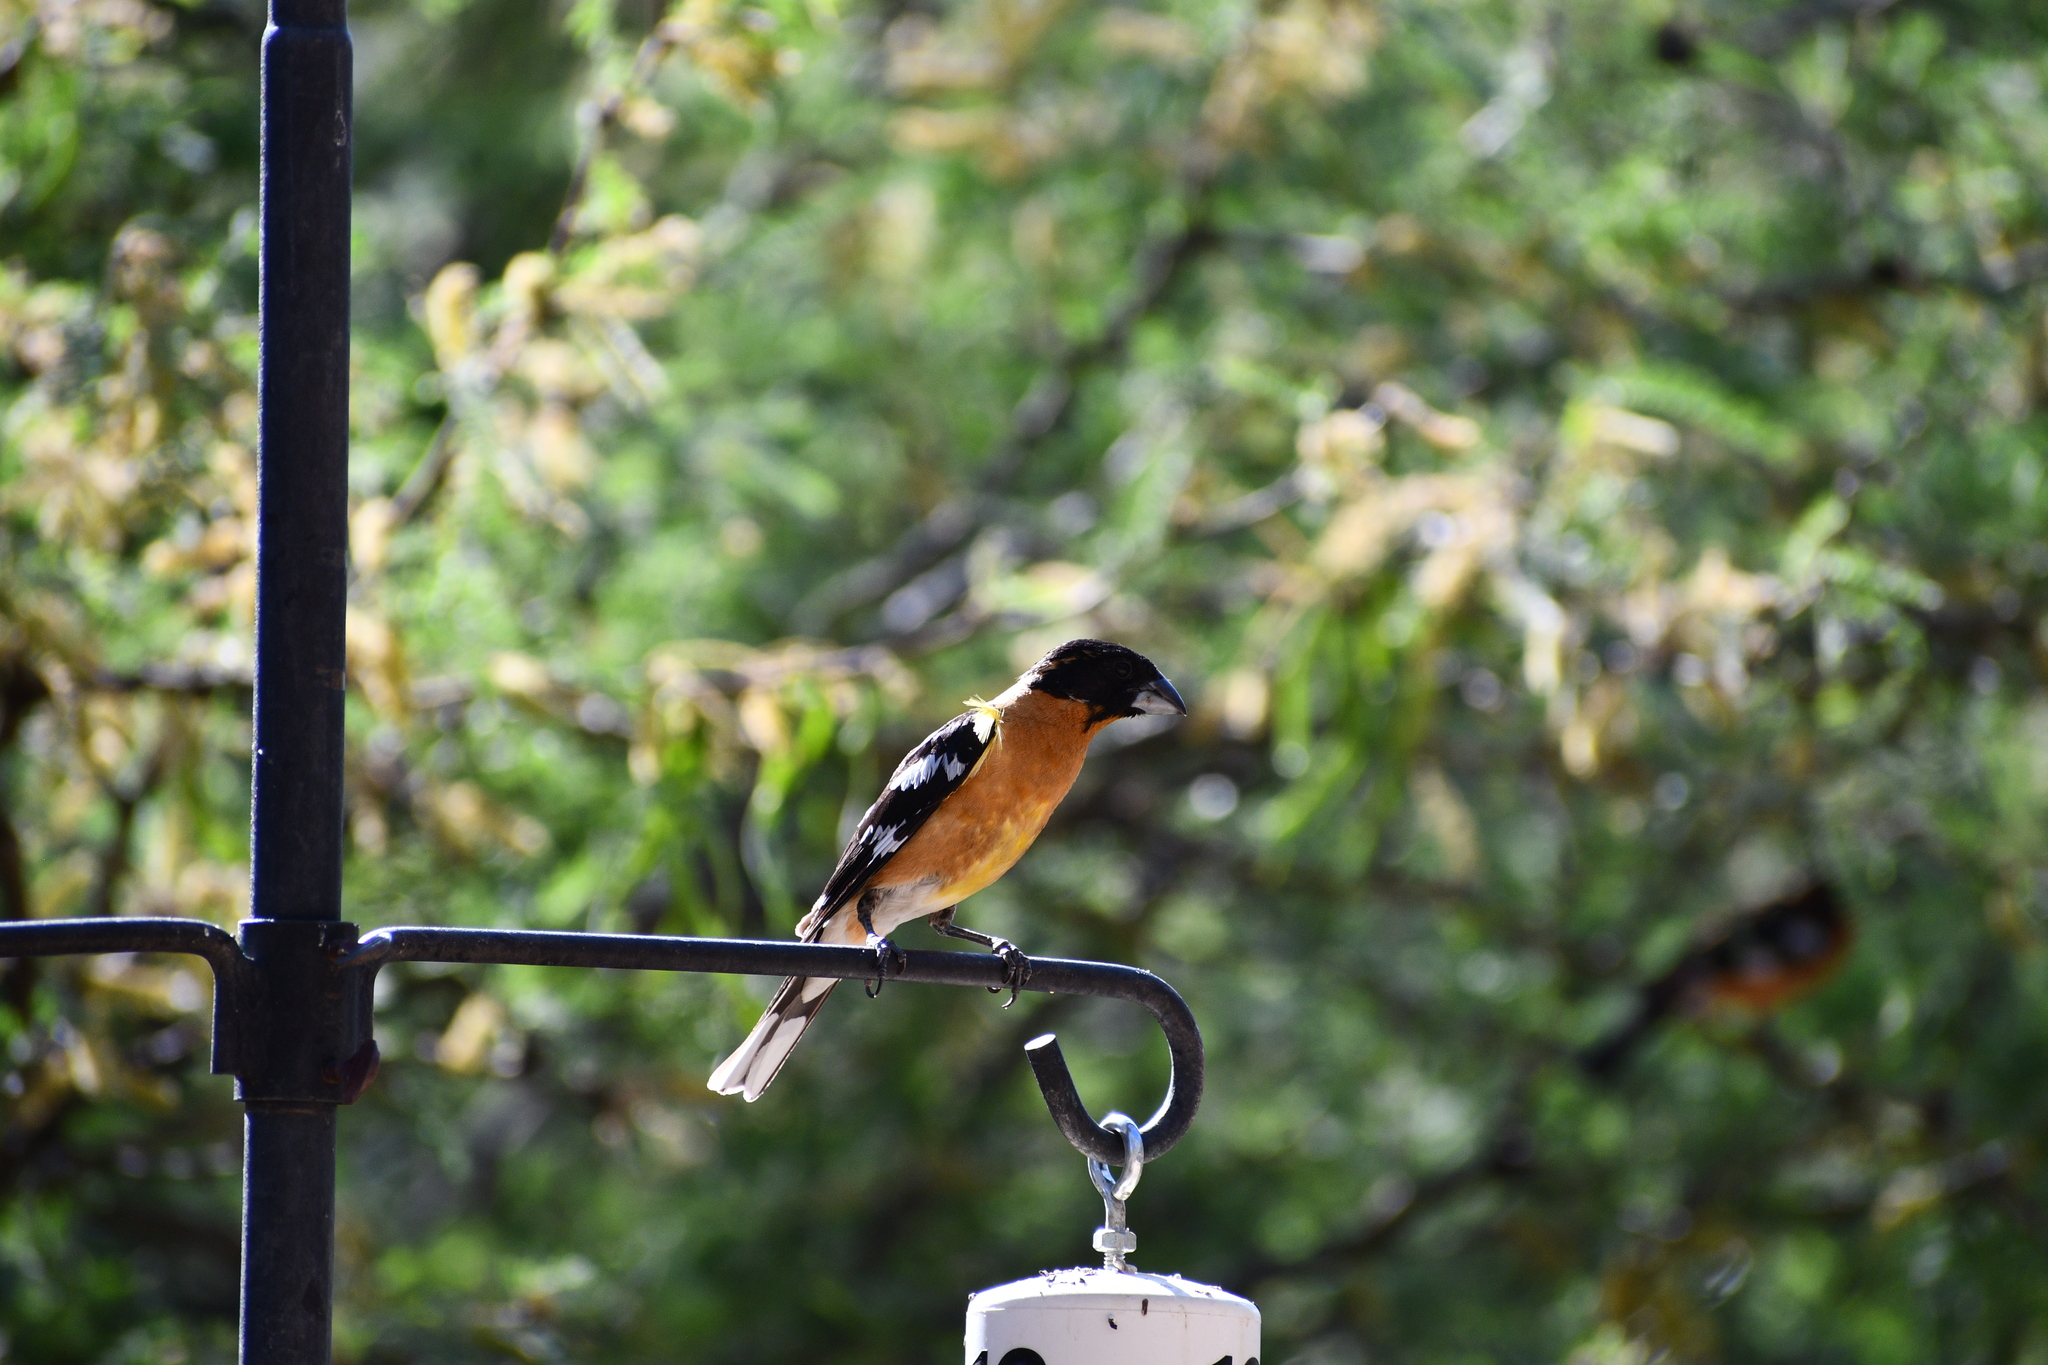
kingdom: Animalia
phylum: Chordata
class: Aves
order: Passeriformes
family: Cardinalidae
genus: Pheucticus
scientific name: Pheucticus melanocephalus
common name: Black-headed grosbeak
